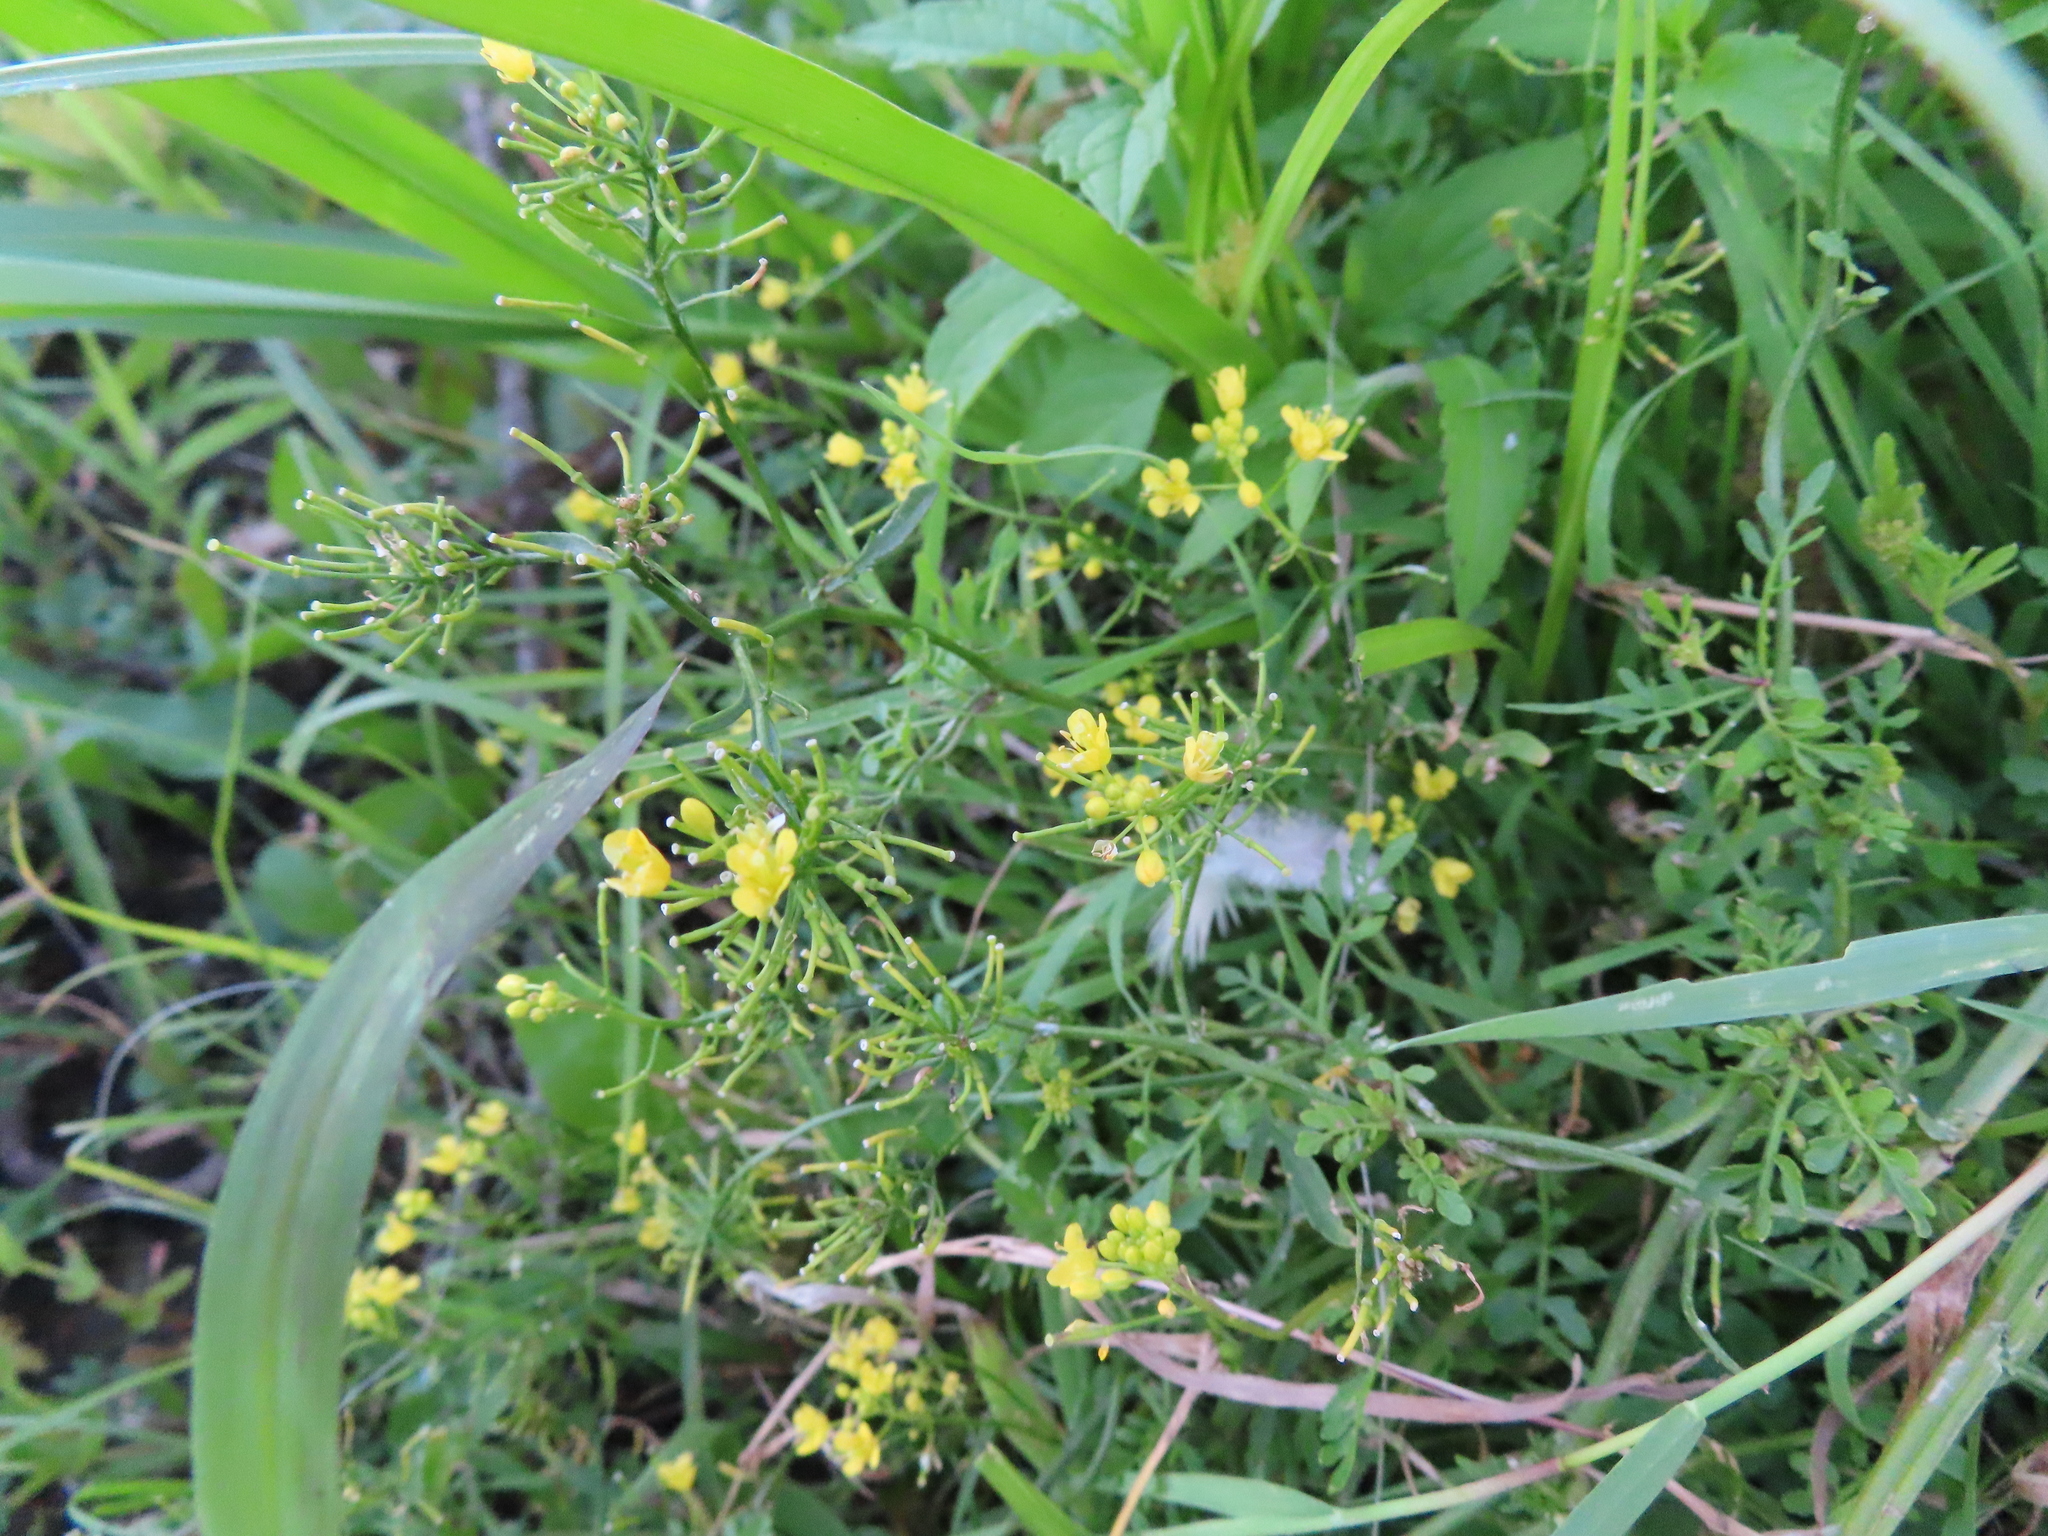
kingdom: Plantae
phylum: Tracheophyta
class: Magnoliopsida
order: Brassicales
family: Brassicaceae
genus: Rorippa
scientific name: Rorippa sylvestris
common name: Creeping yellowcress
